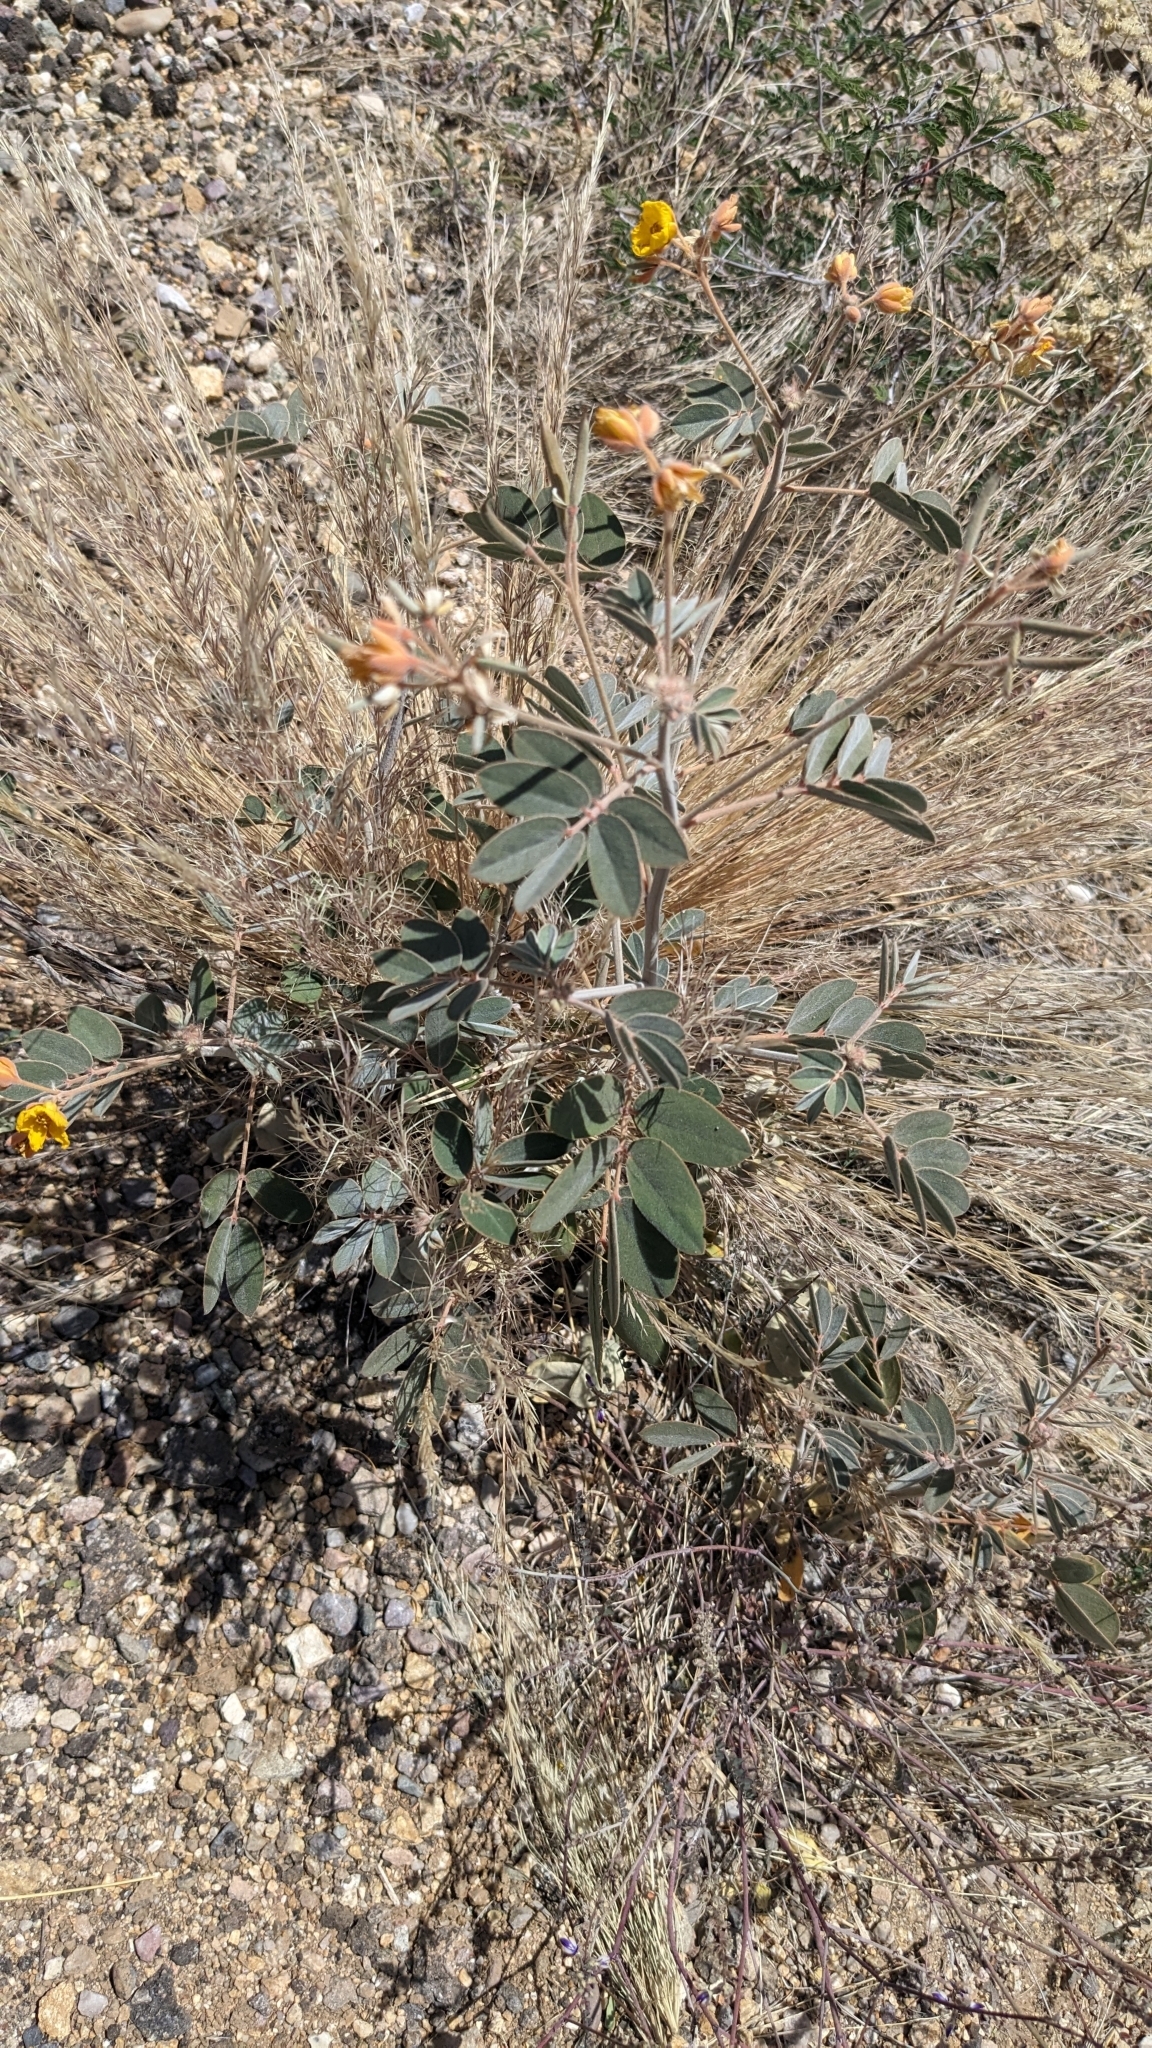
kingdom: Plantae
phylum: Tracheophyta
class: Magnoliopsida
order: Fabales
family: Fabaceae
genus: Senna
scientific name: Senna covesii
